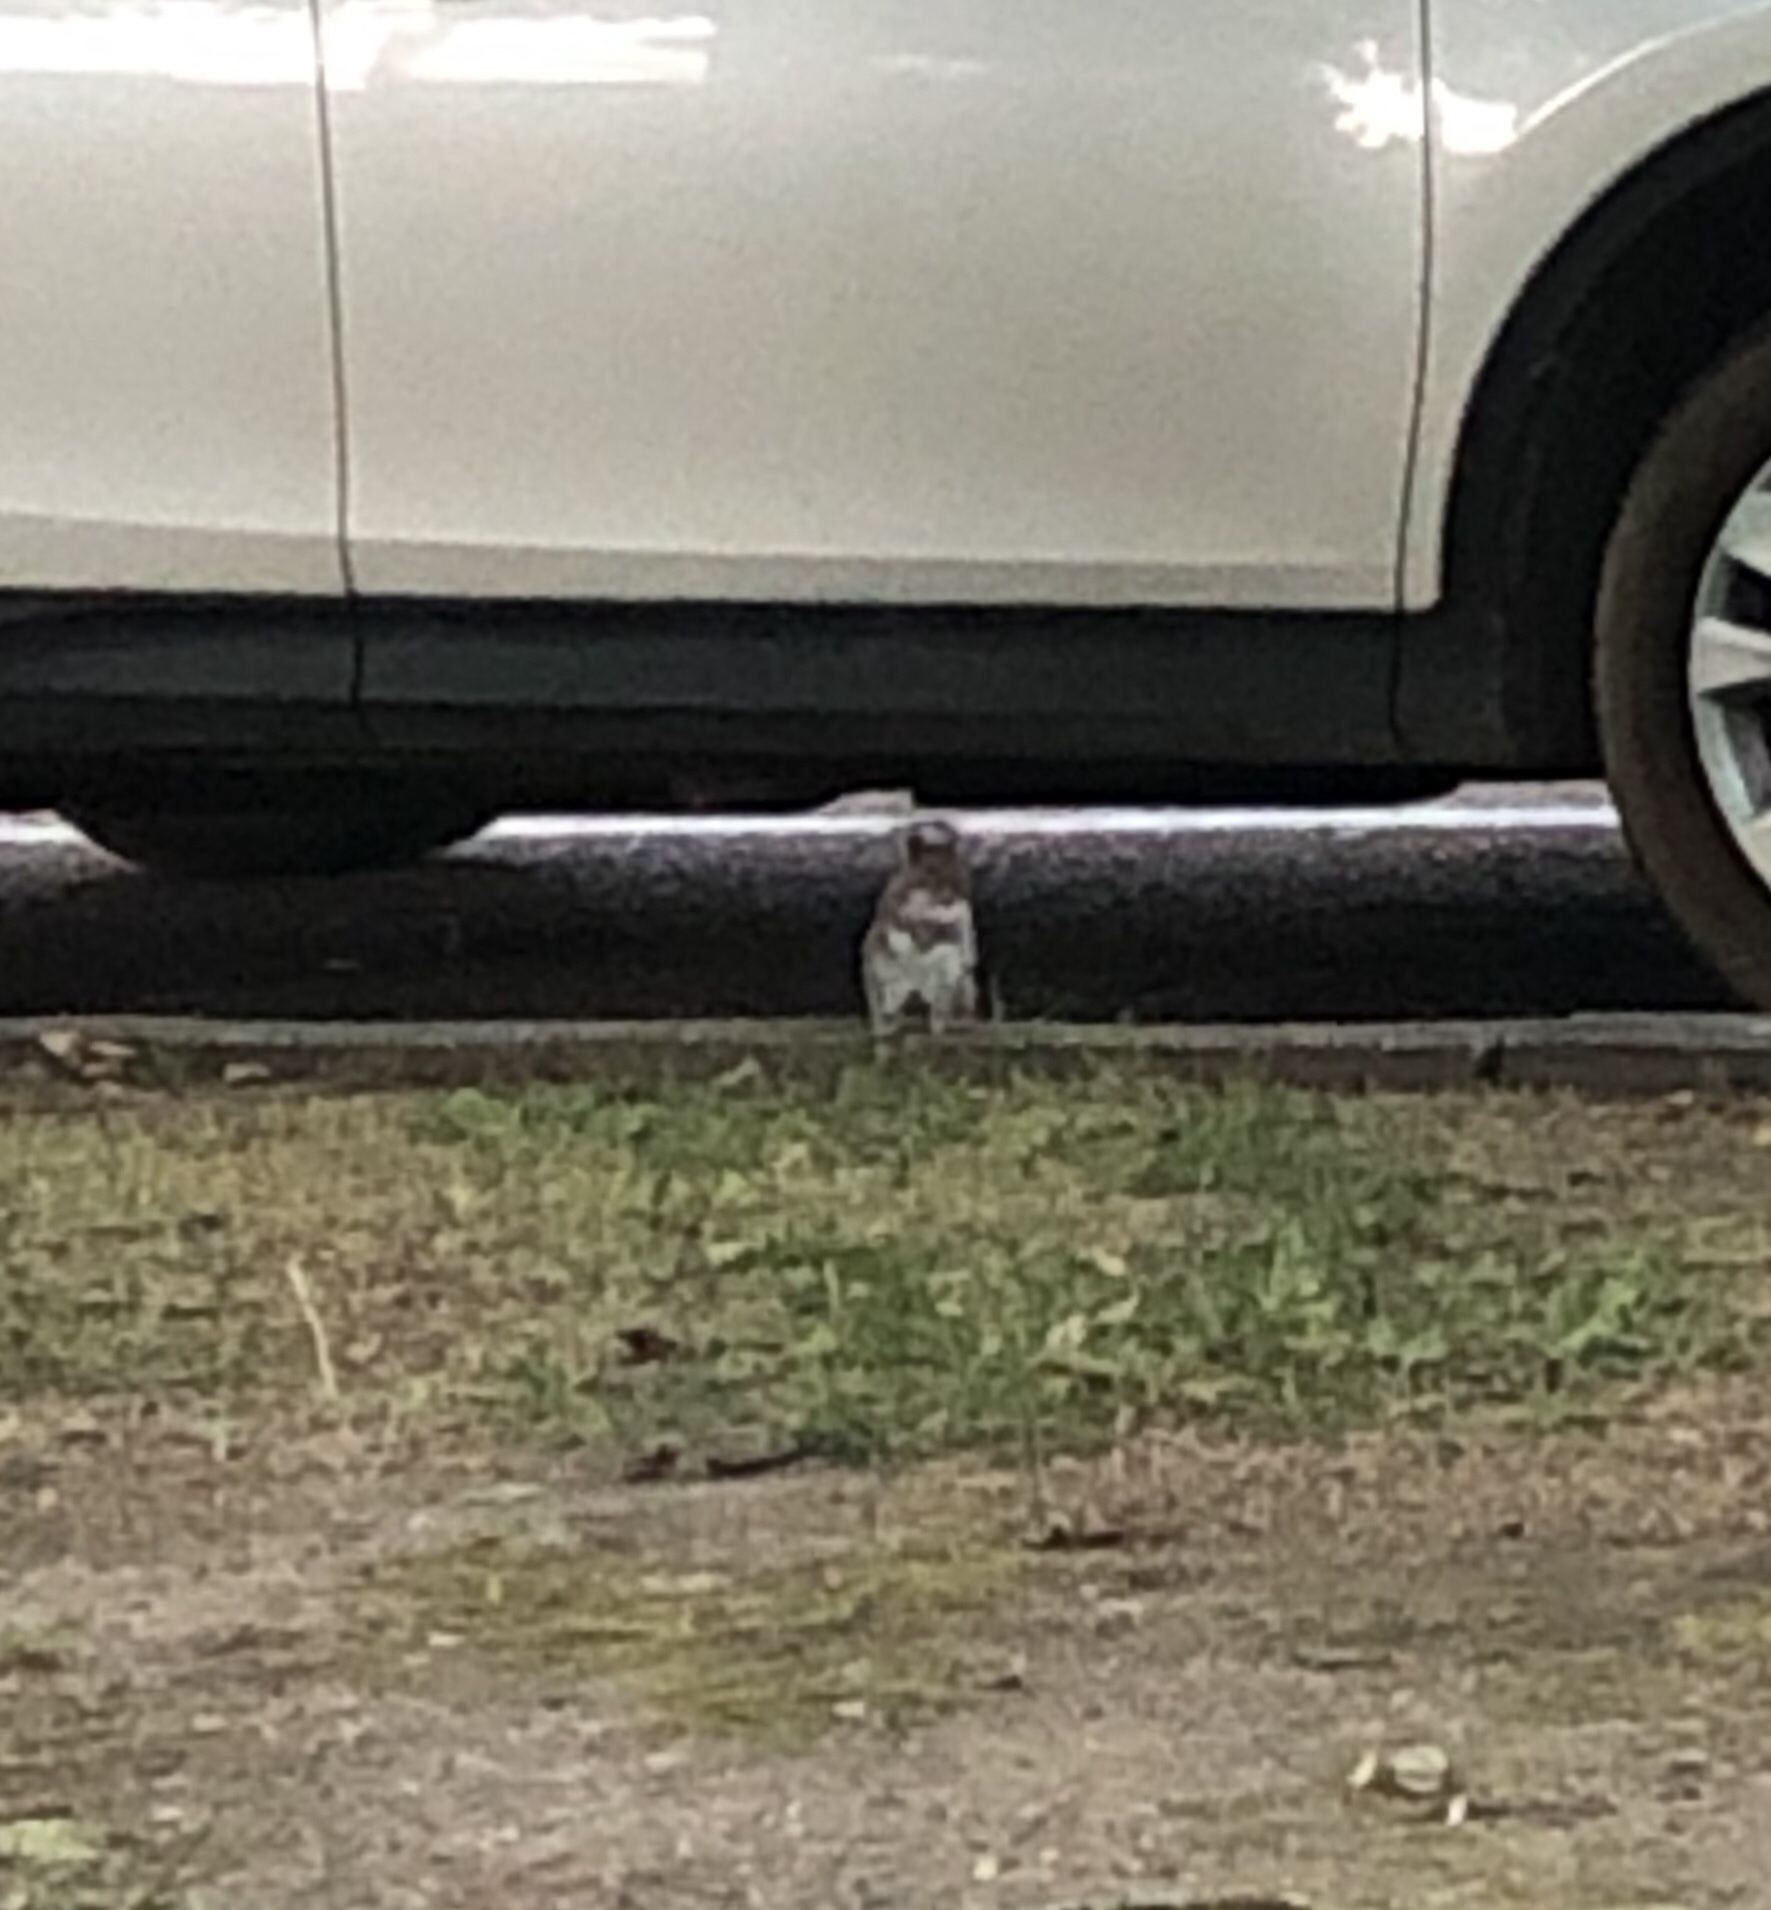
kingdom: Animalia
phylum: Chordata
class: Mammalia
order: Rodentia
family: Sciuridae
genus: Sciurus
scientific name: Sciurus carolinensis
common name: Eastern gray squirrel
